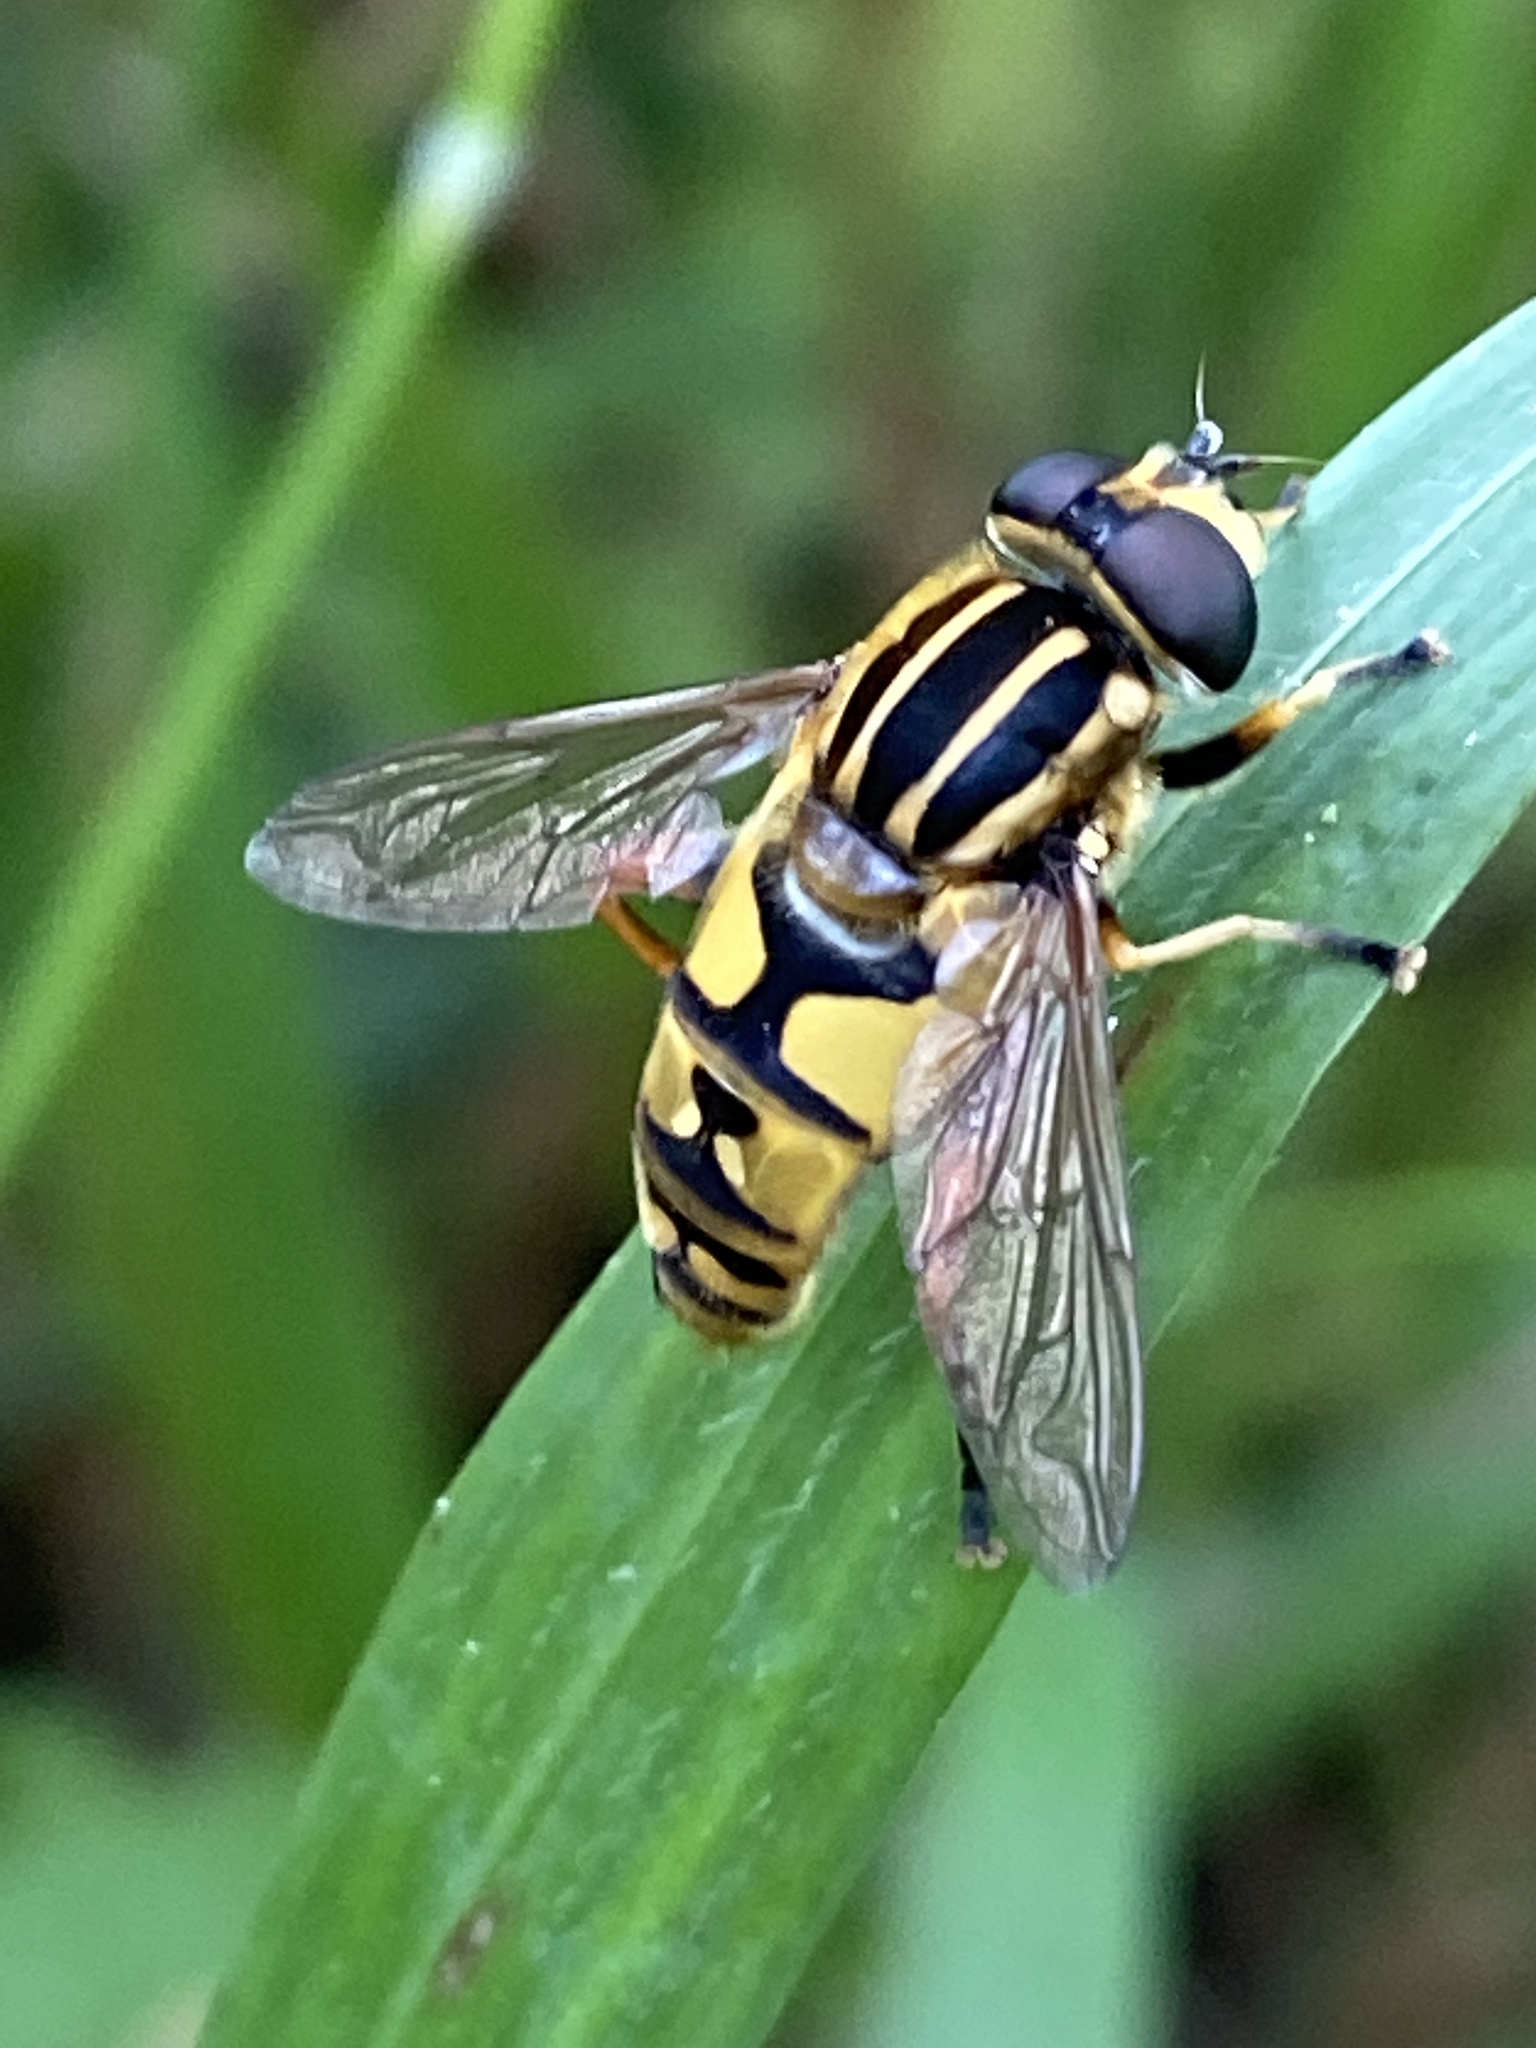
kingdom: Animalia
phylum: Arthropoda
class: Insecta
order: Diptera
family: Syrphidae
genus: Helophilus
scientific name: Helophilus pendulus
